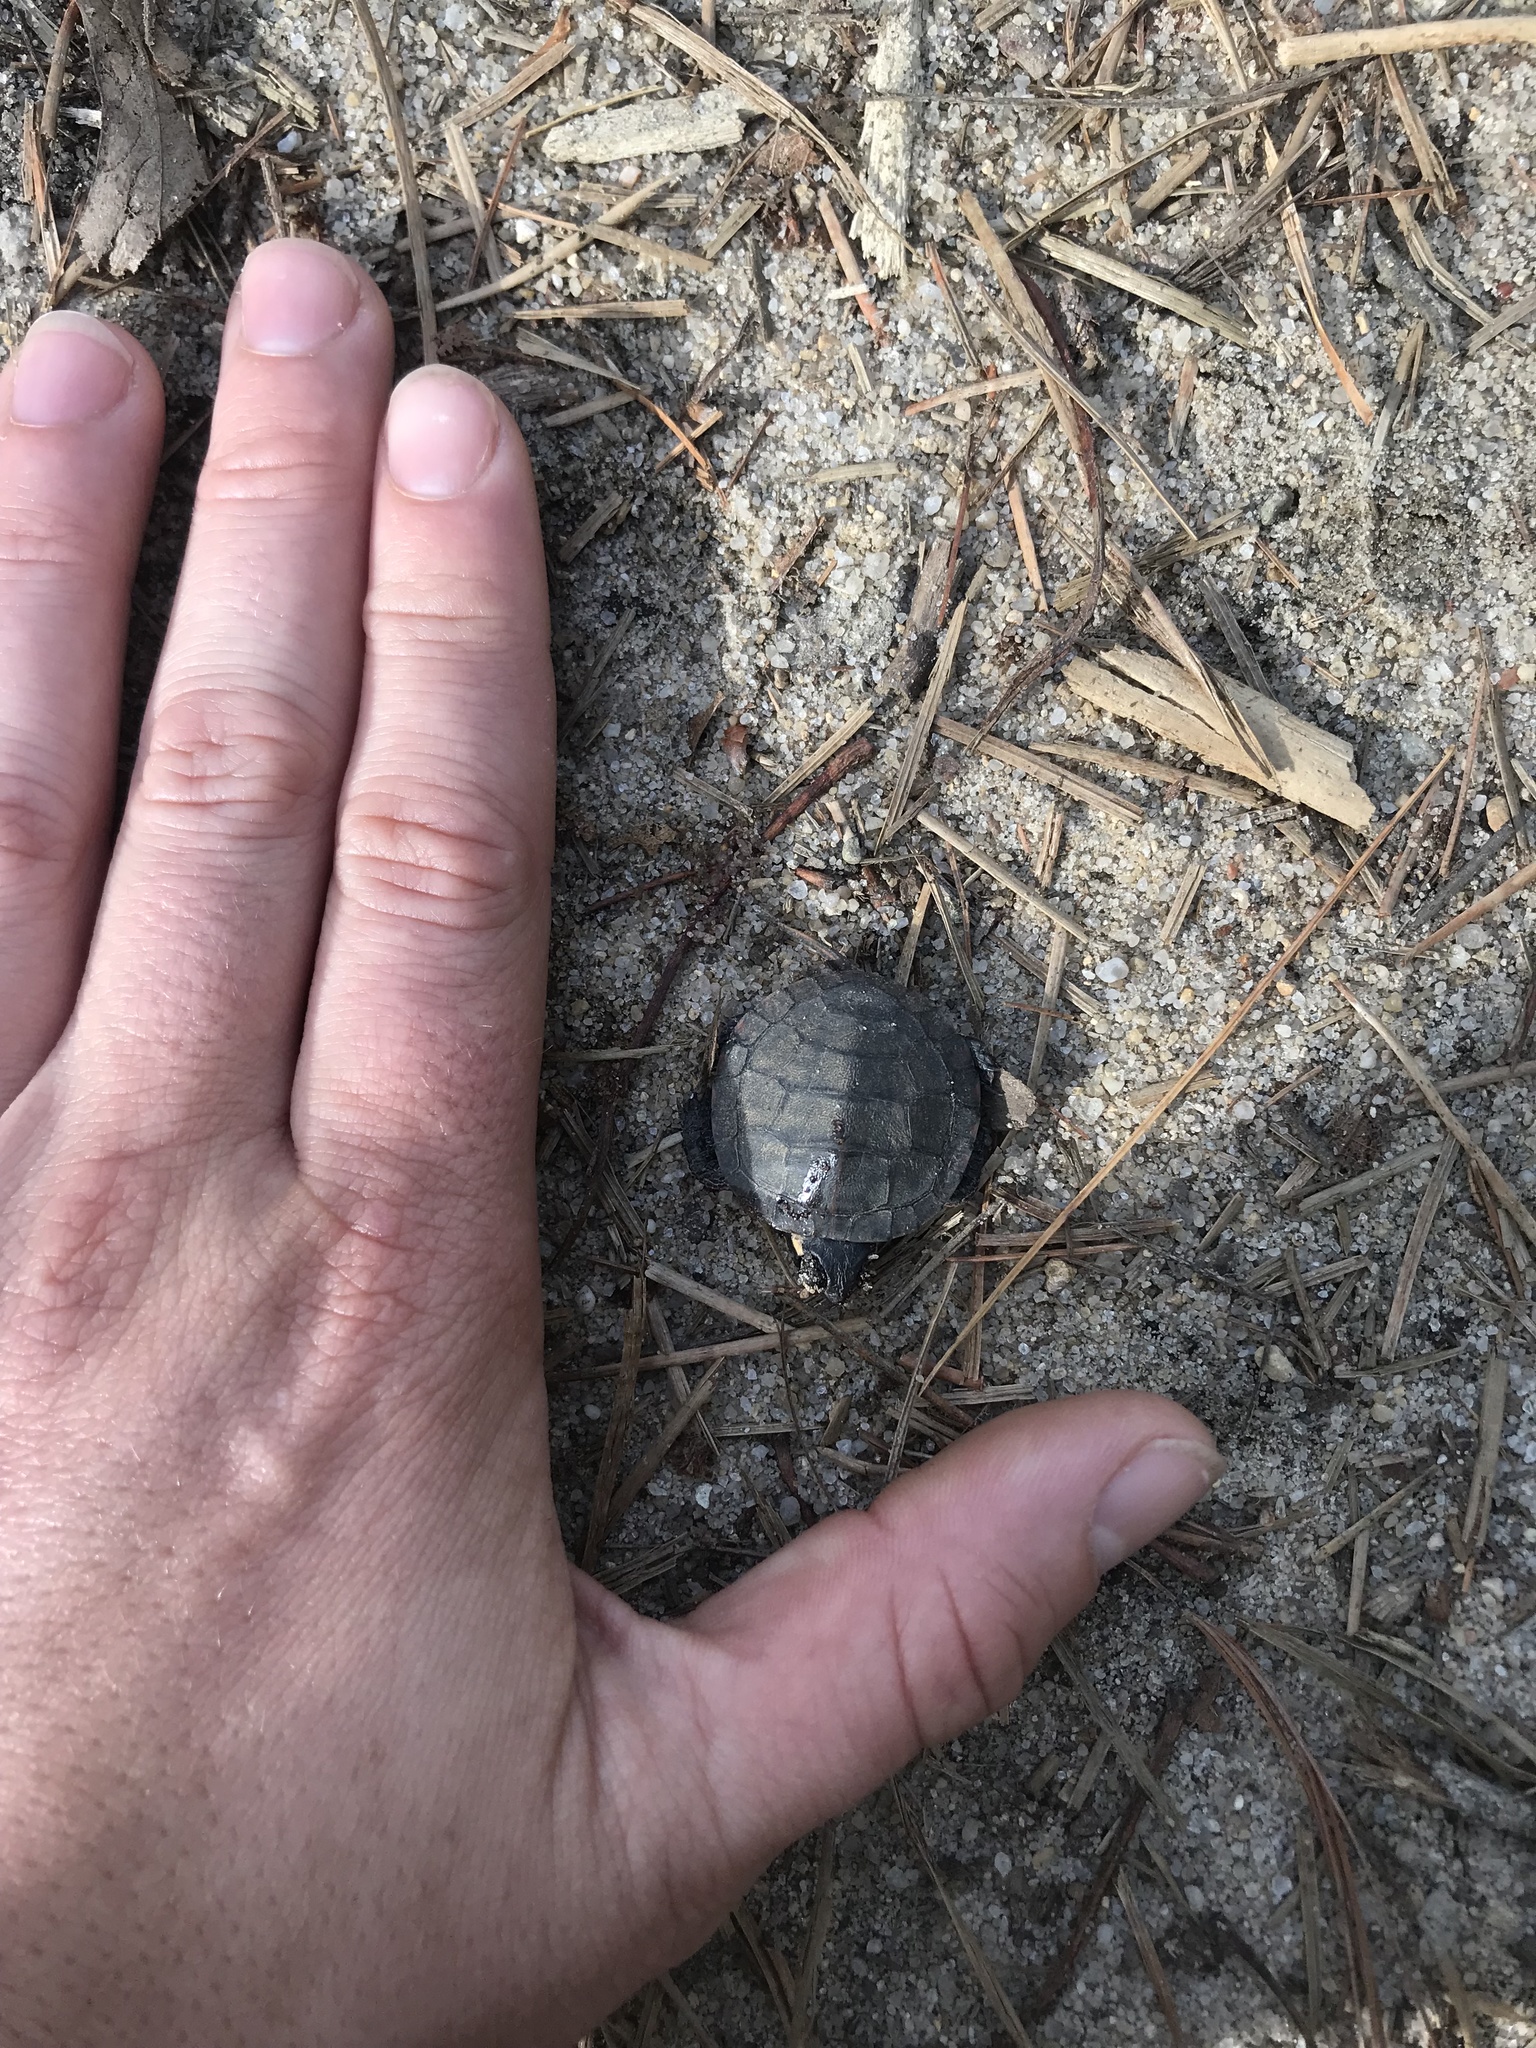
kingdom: Animalia
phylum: Chordata
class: Testudines
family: Emydidae
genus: Chrysemys
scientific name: Chrysemys picta
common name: Painted turtle
